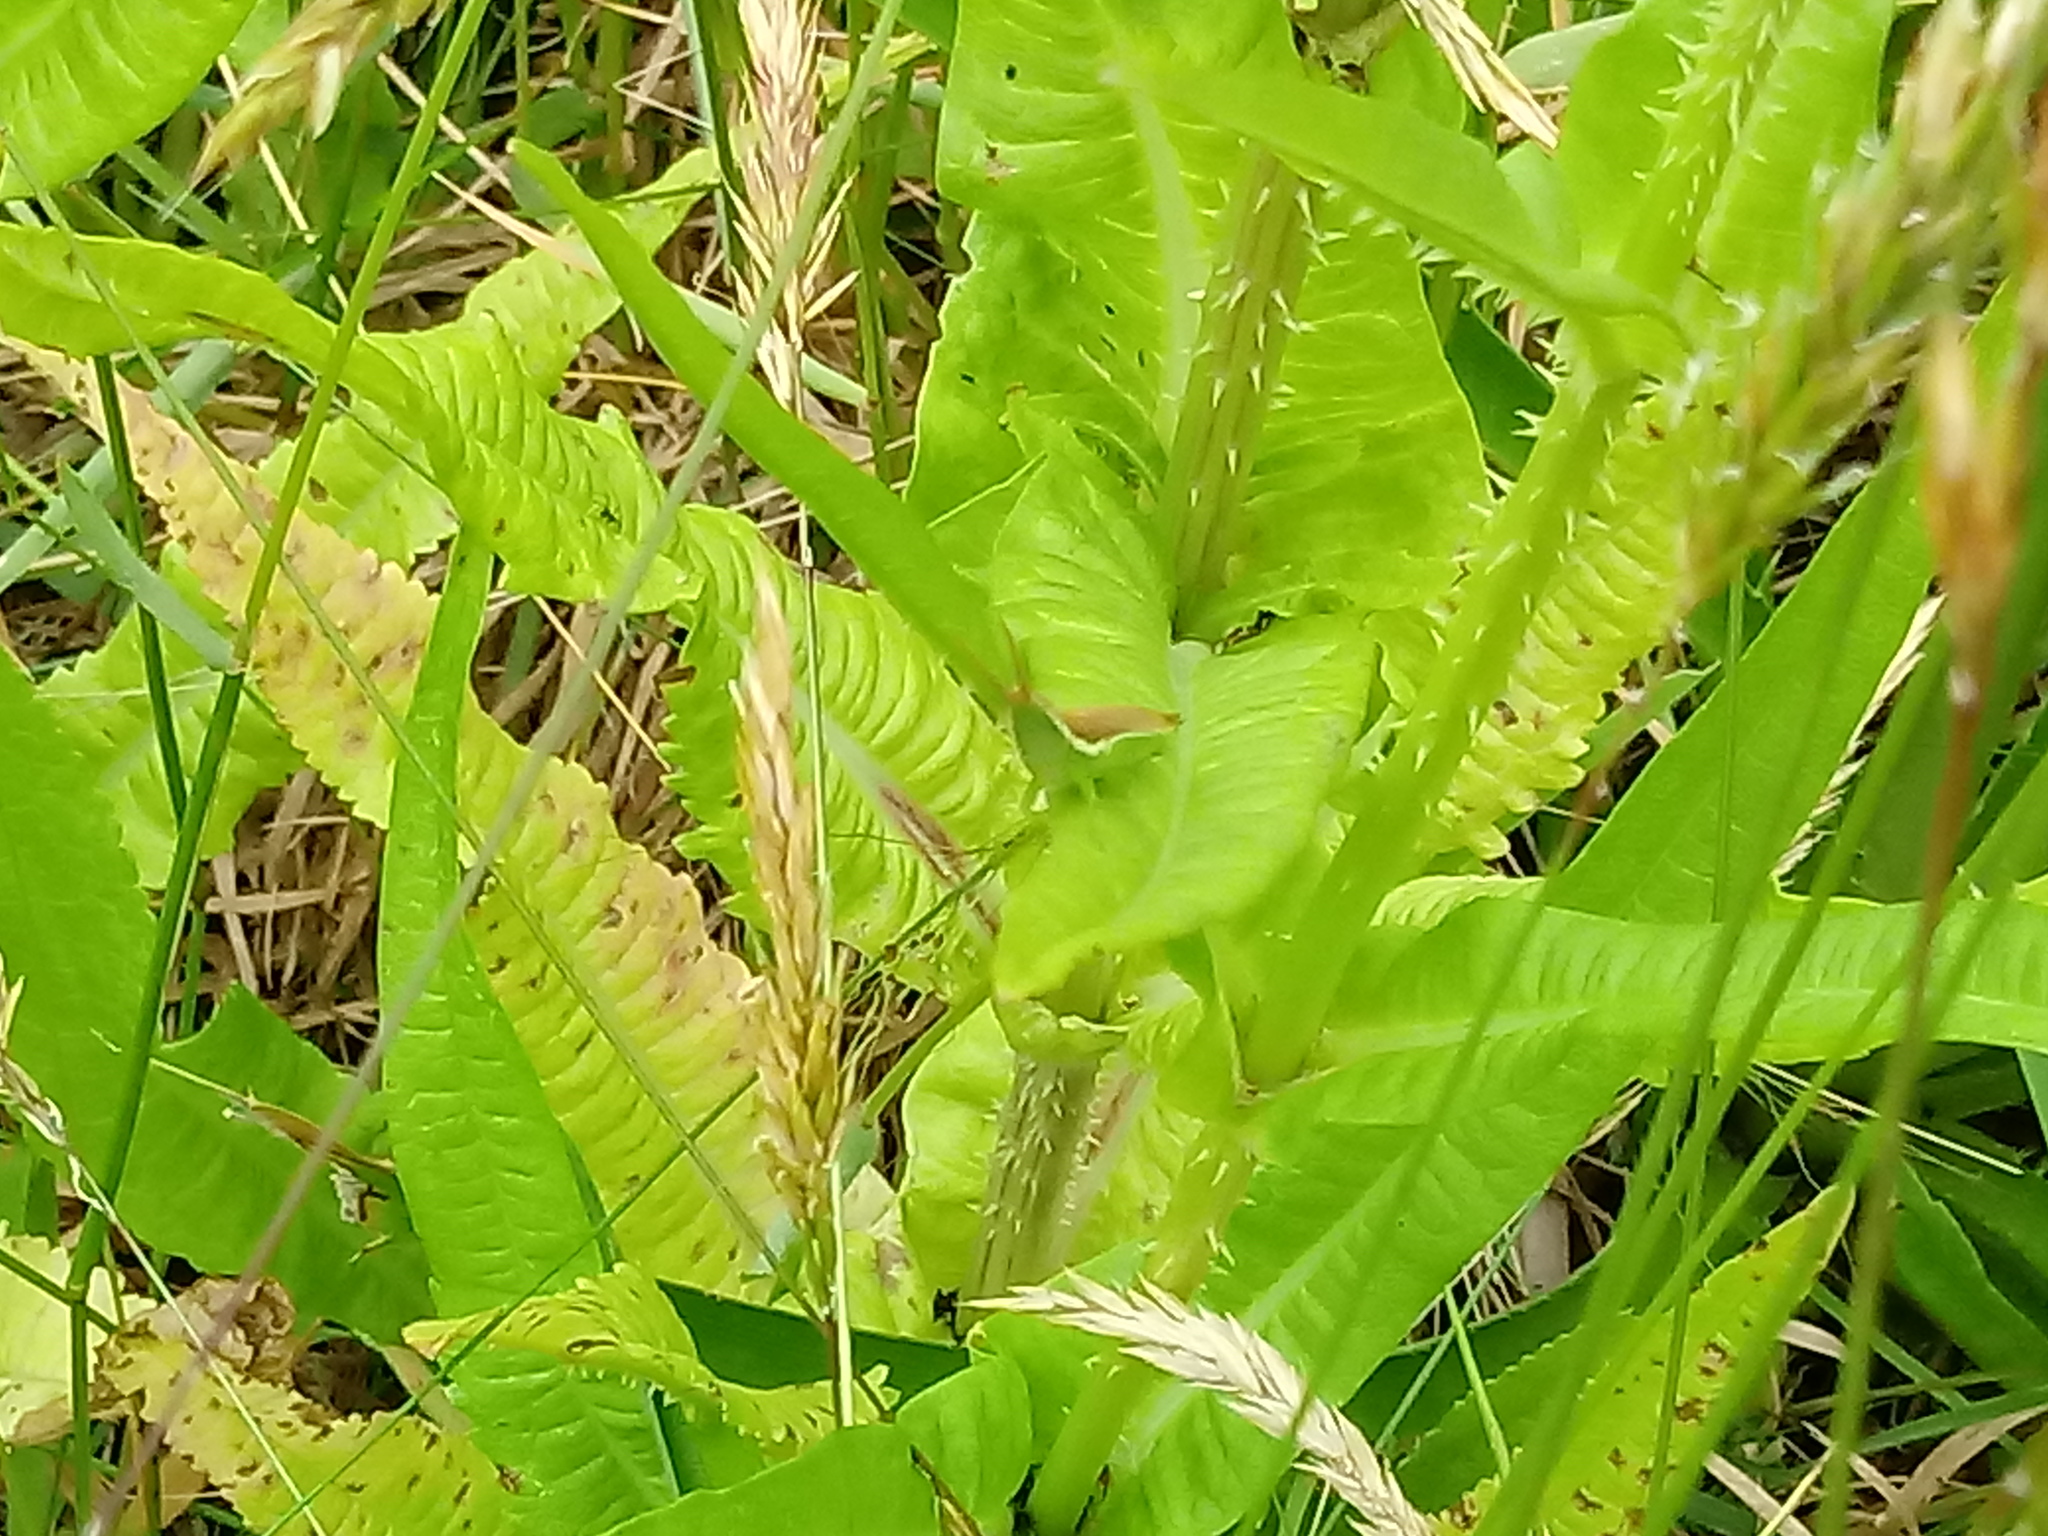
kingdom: Plantae
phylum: Tracheophyta
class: Magnoliopsida
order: Dipsacales
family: Caprifoliaceae
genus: Dipsacus
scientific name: Dipsacus fullonum
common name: Teasel
